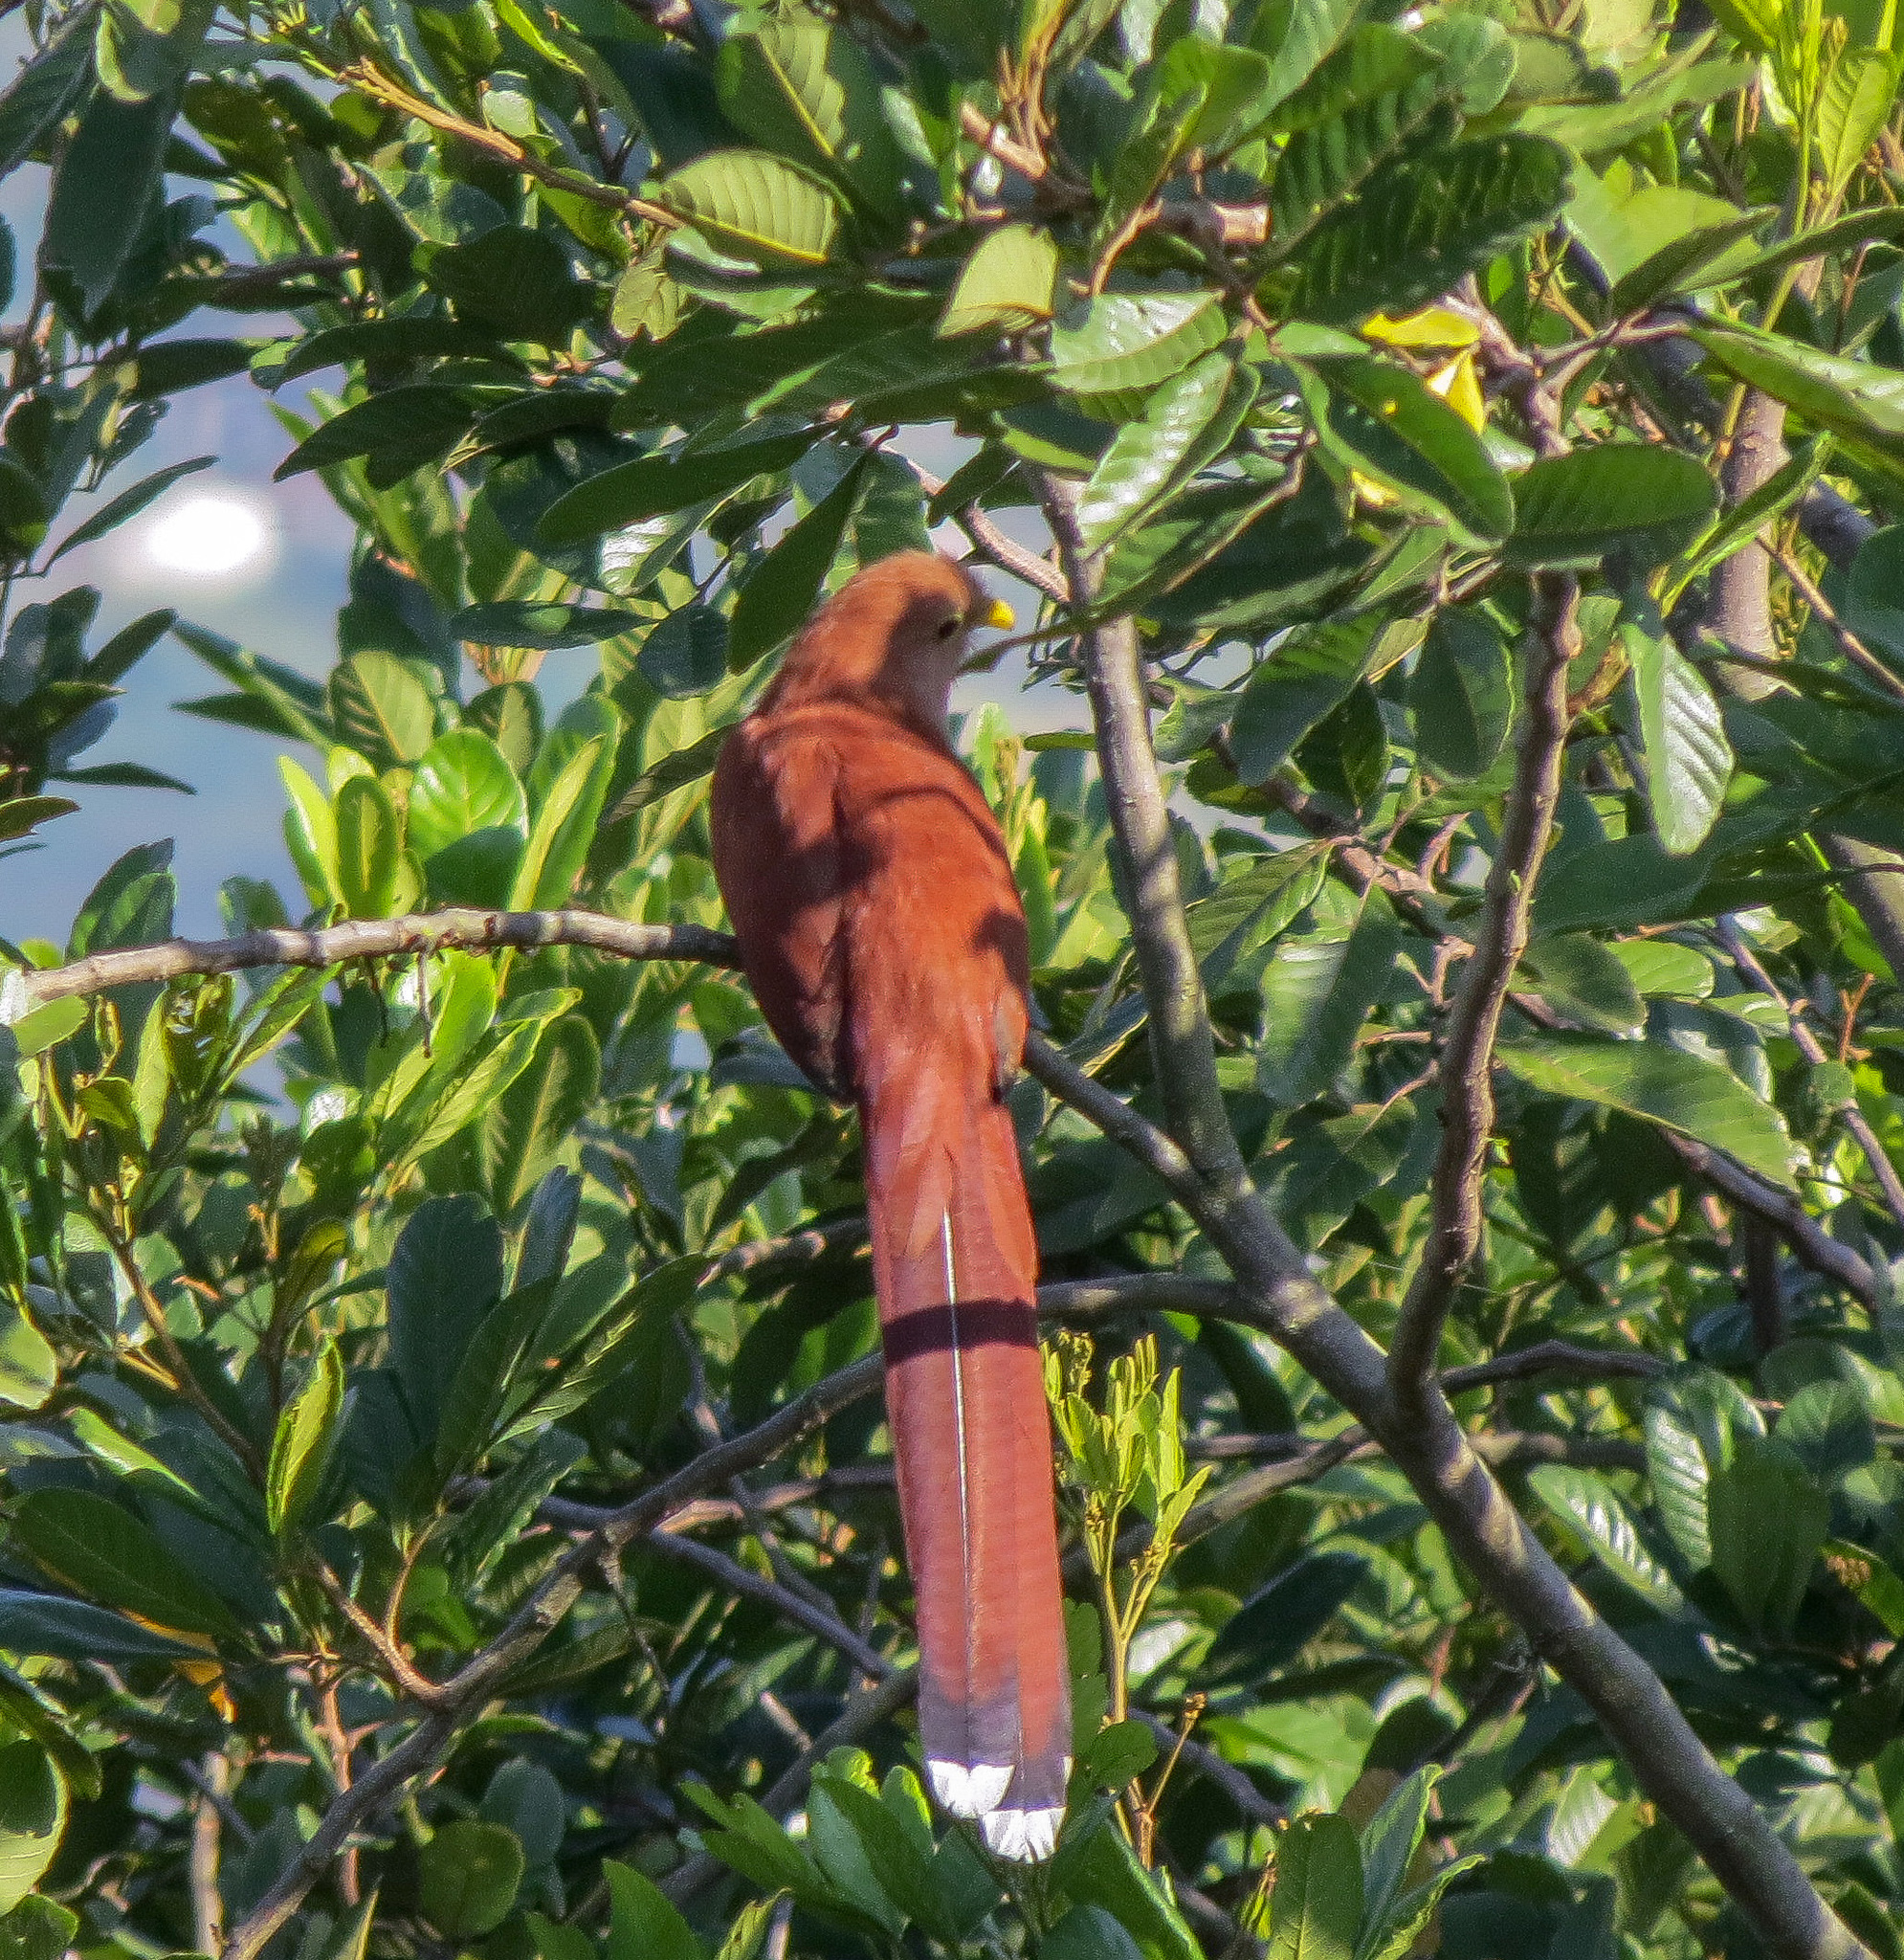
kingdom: Animalia
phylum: Chordata
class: Aves
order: Cuculiformes
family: Cuculidae
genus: Piaya
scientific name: Piaya cayana
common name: Squirrel cuckoo
